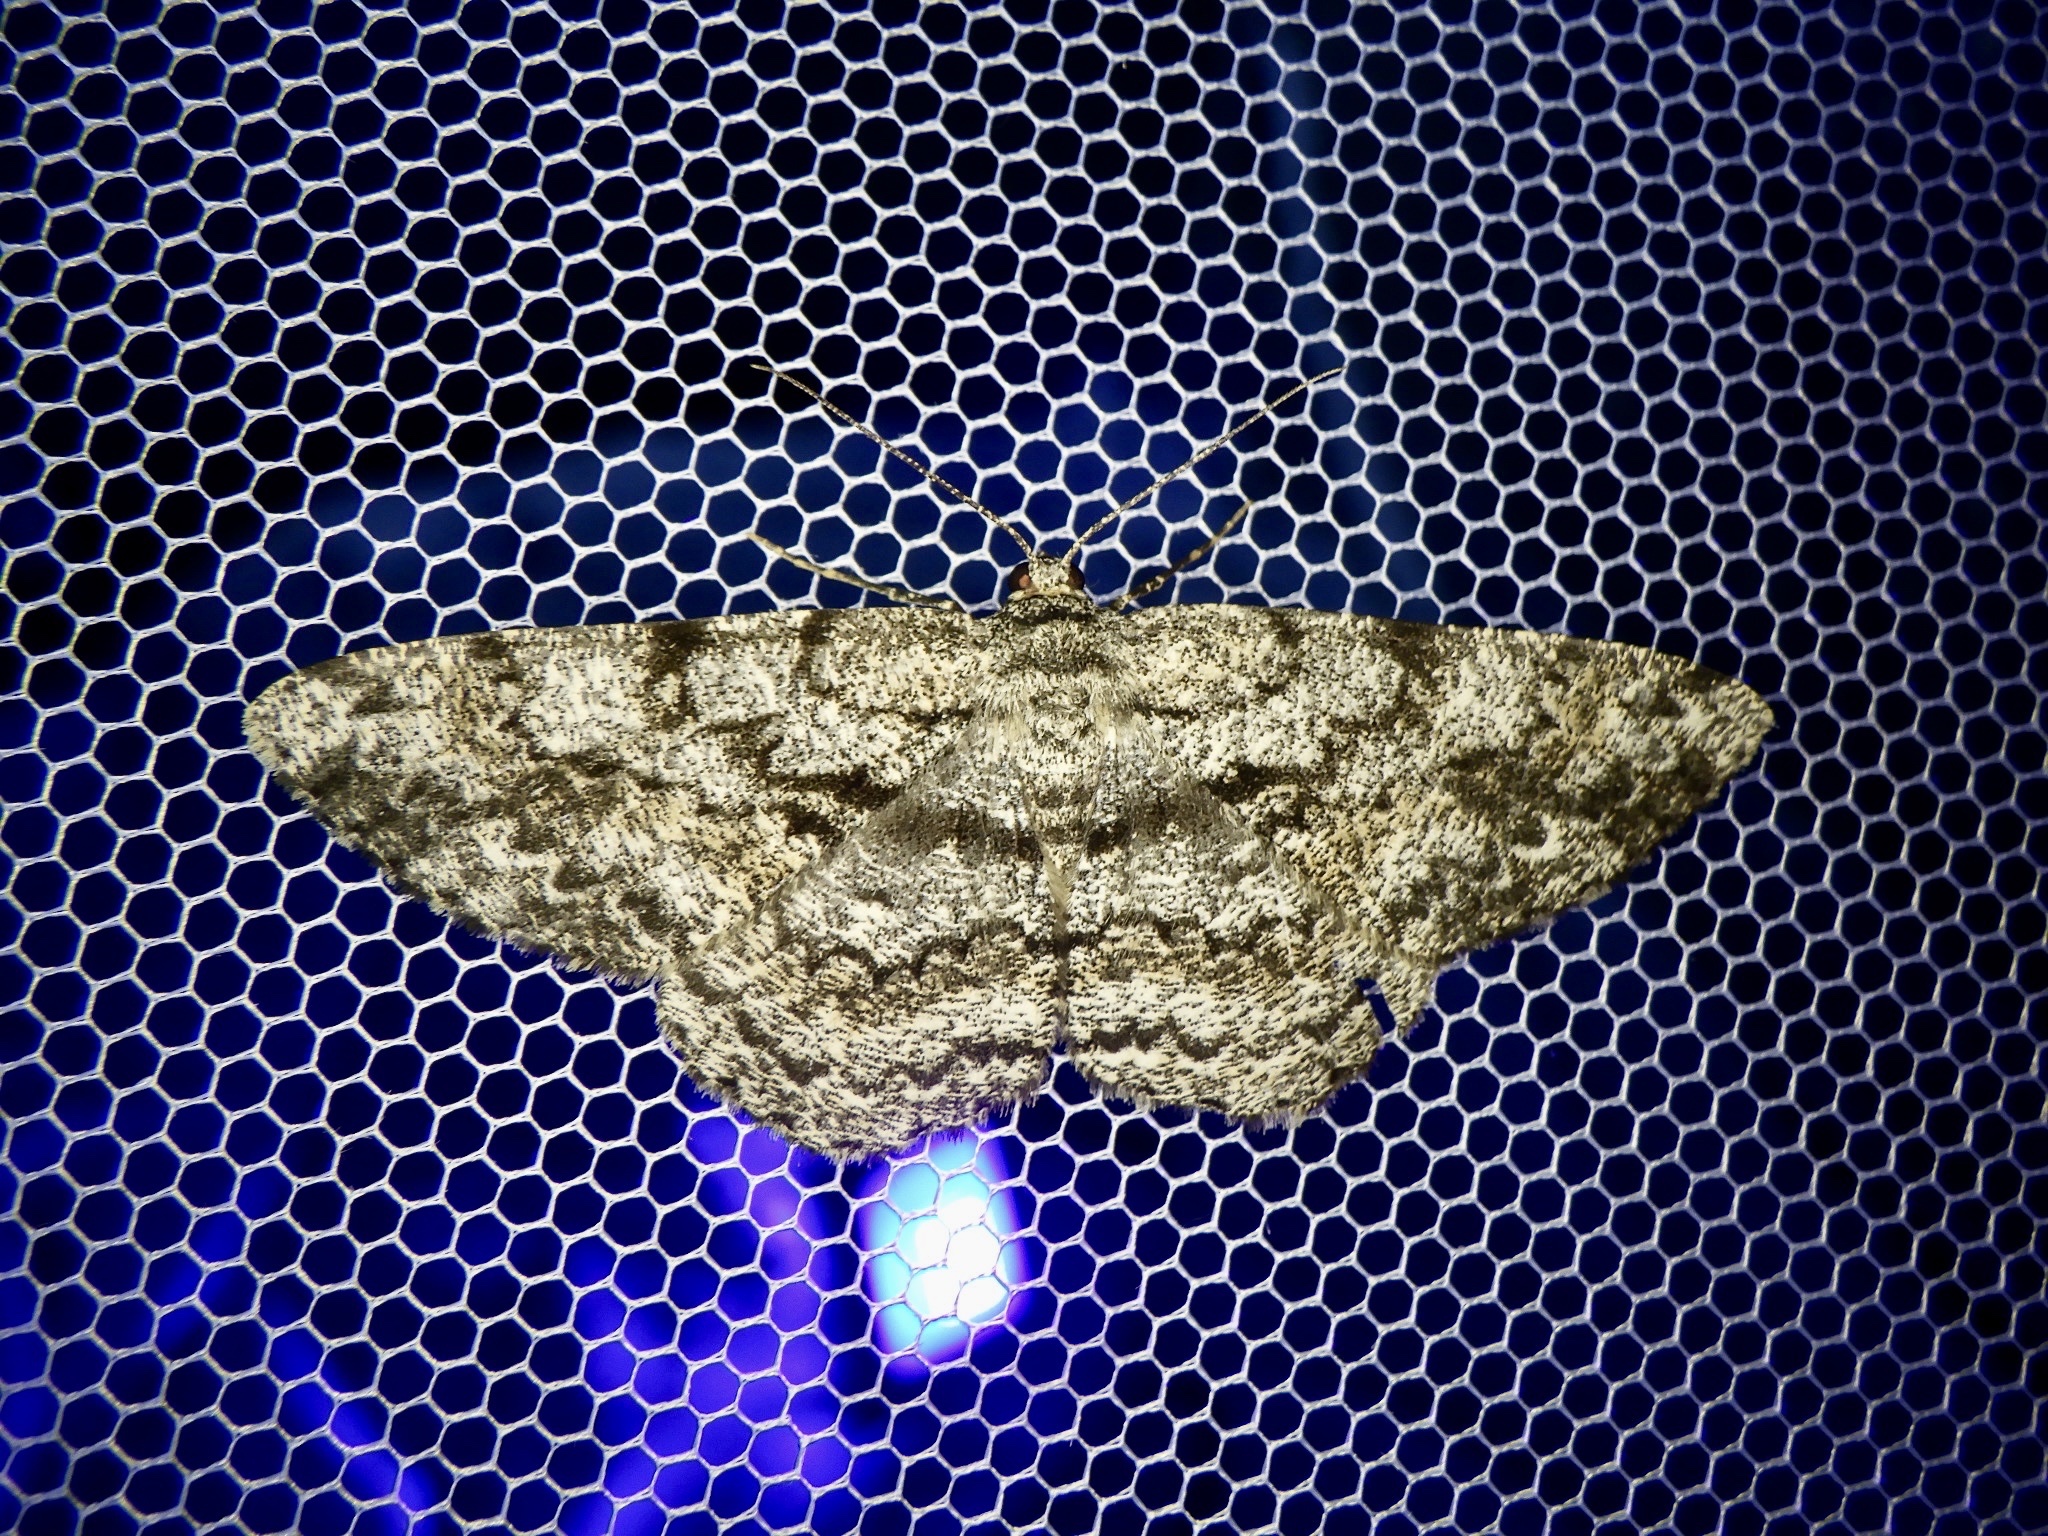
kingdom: Animalia
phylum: Arthropoda
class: Insecta
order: Lepidoptera
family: Geometridae
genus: Hypomecis
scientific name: Hypomecis roboraria
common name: Great oak beauty
